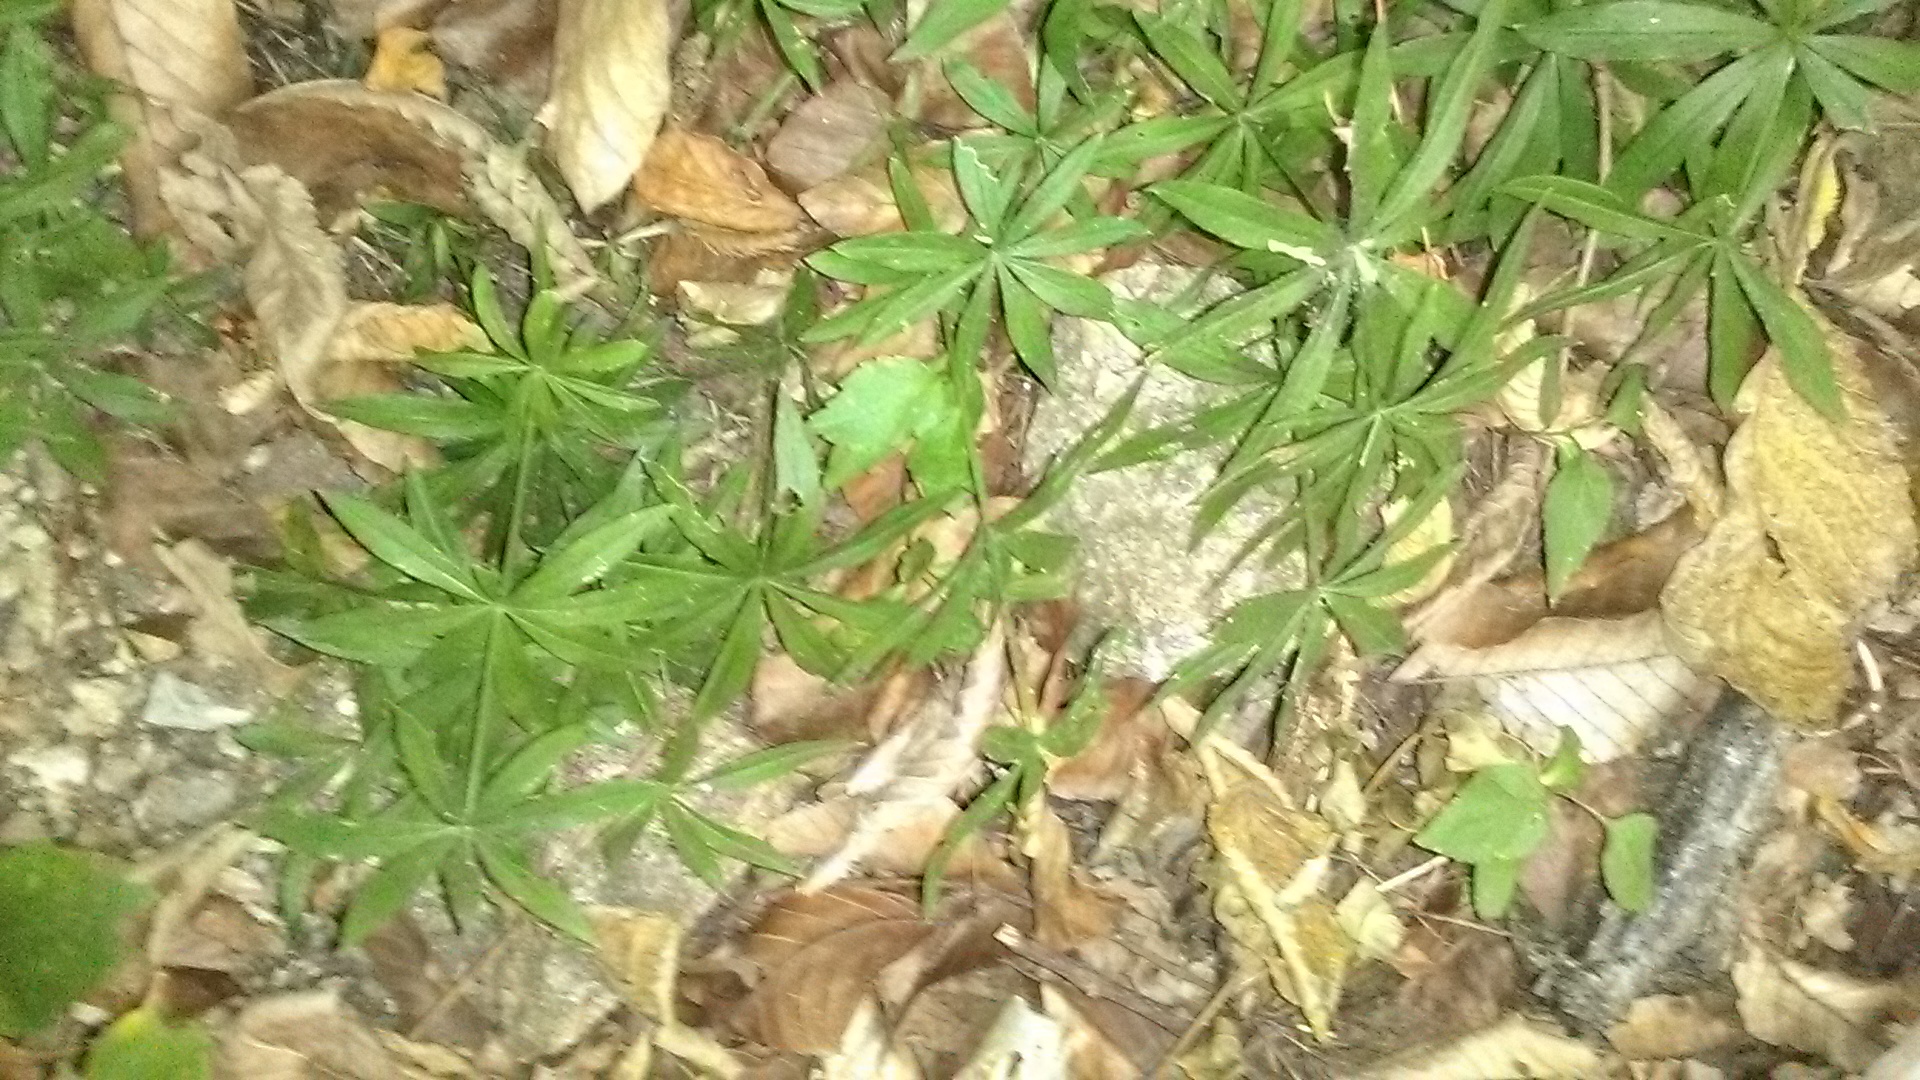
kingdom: Plantae
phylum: Tracheophyta
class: Magnoliopsida
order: Gentianales
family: Rubiaceae
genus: Galium
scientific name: Galium odoratum
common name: Sweet woodruff
